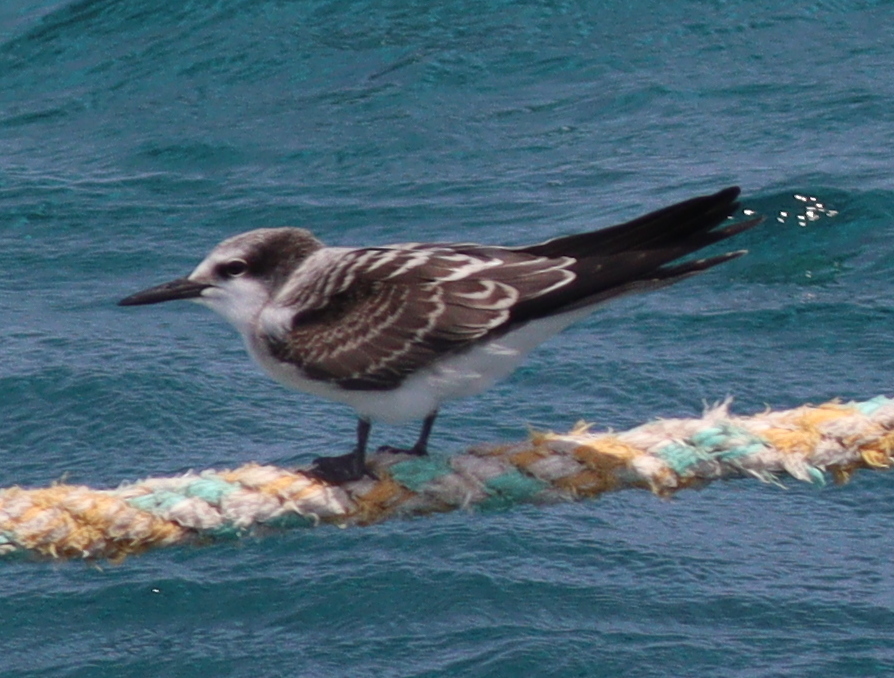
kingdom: Animalia
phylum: Chordata
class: Aves
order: Charadriiformes
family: Laridae
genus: Onychoprion
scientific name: Onychoprion anaethetus
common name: Bridled tern
